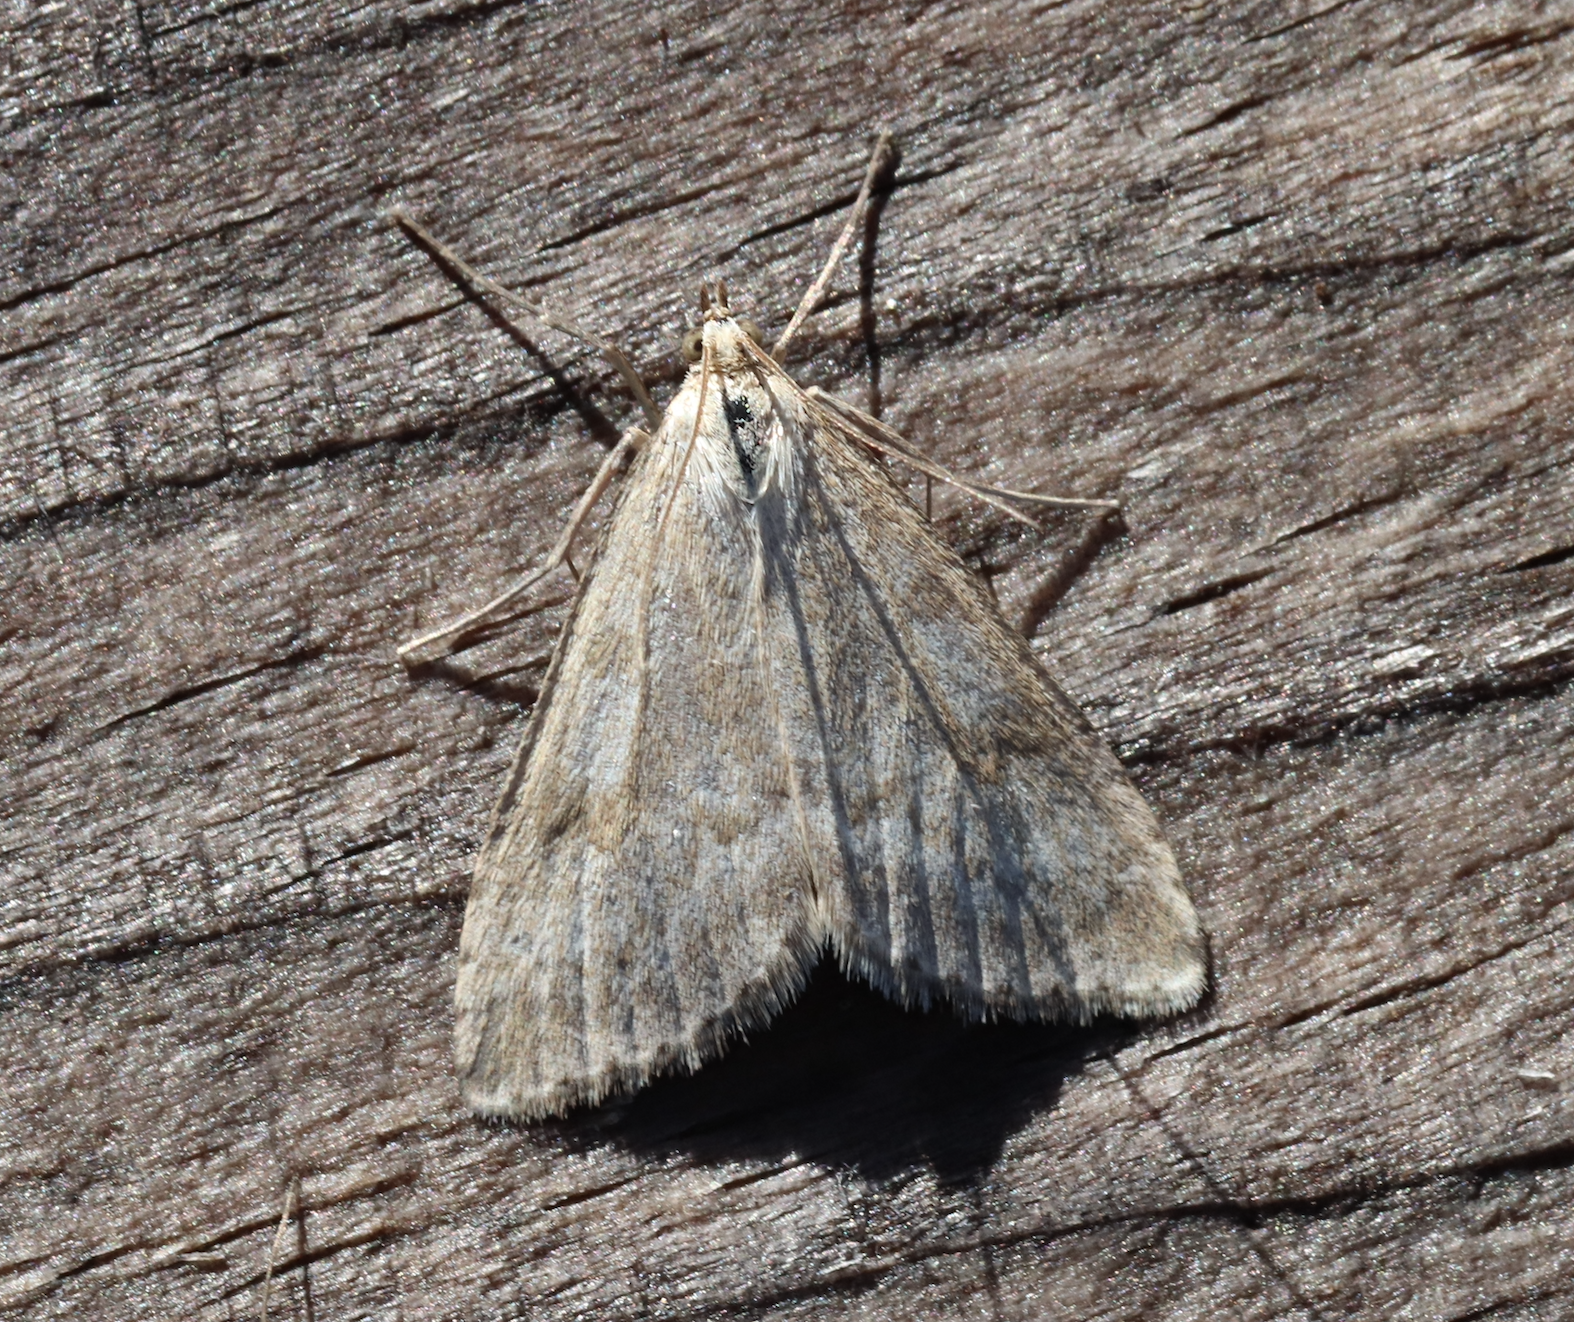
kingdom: Animalia
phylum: Arthropoda
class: Insecta
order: Lepidoptera
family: Crambidae
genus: Udea
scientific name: Udea decrepitalis
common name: Scotch pearl
